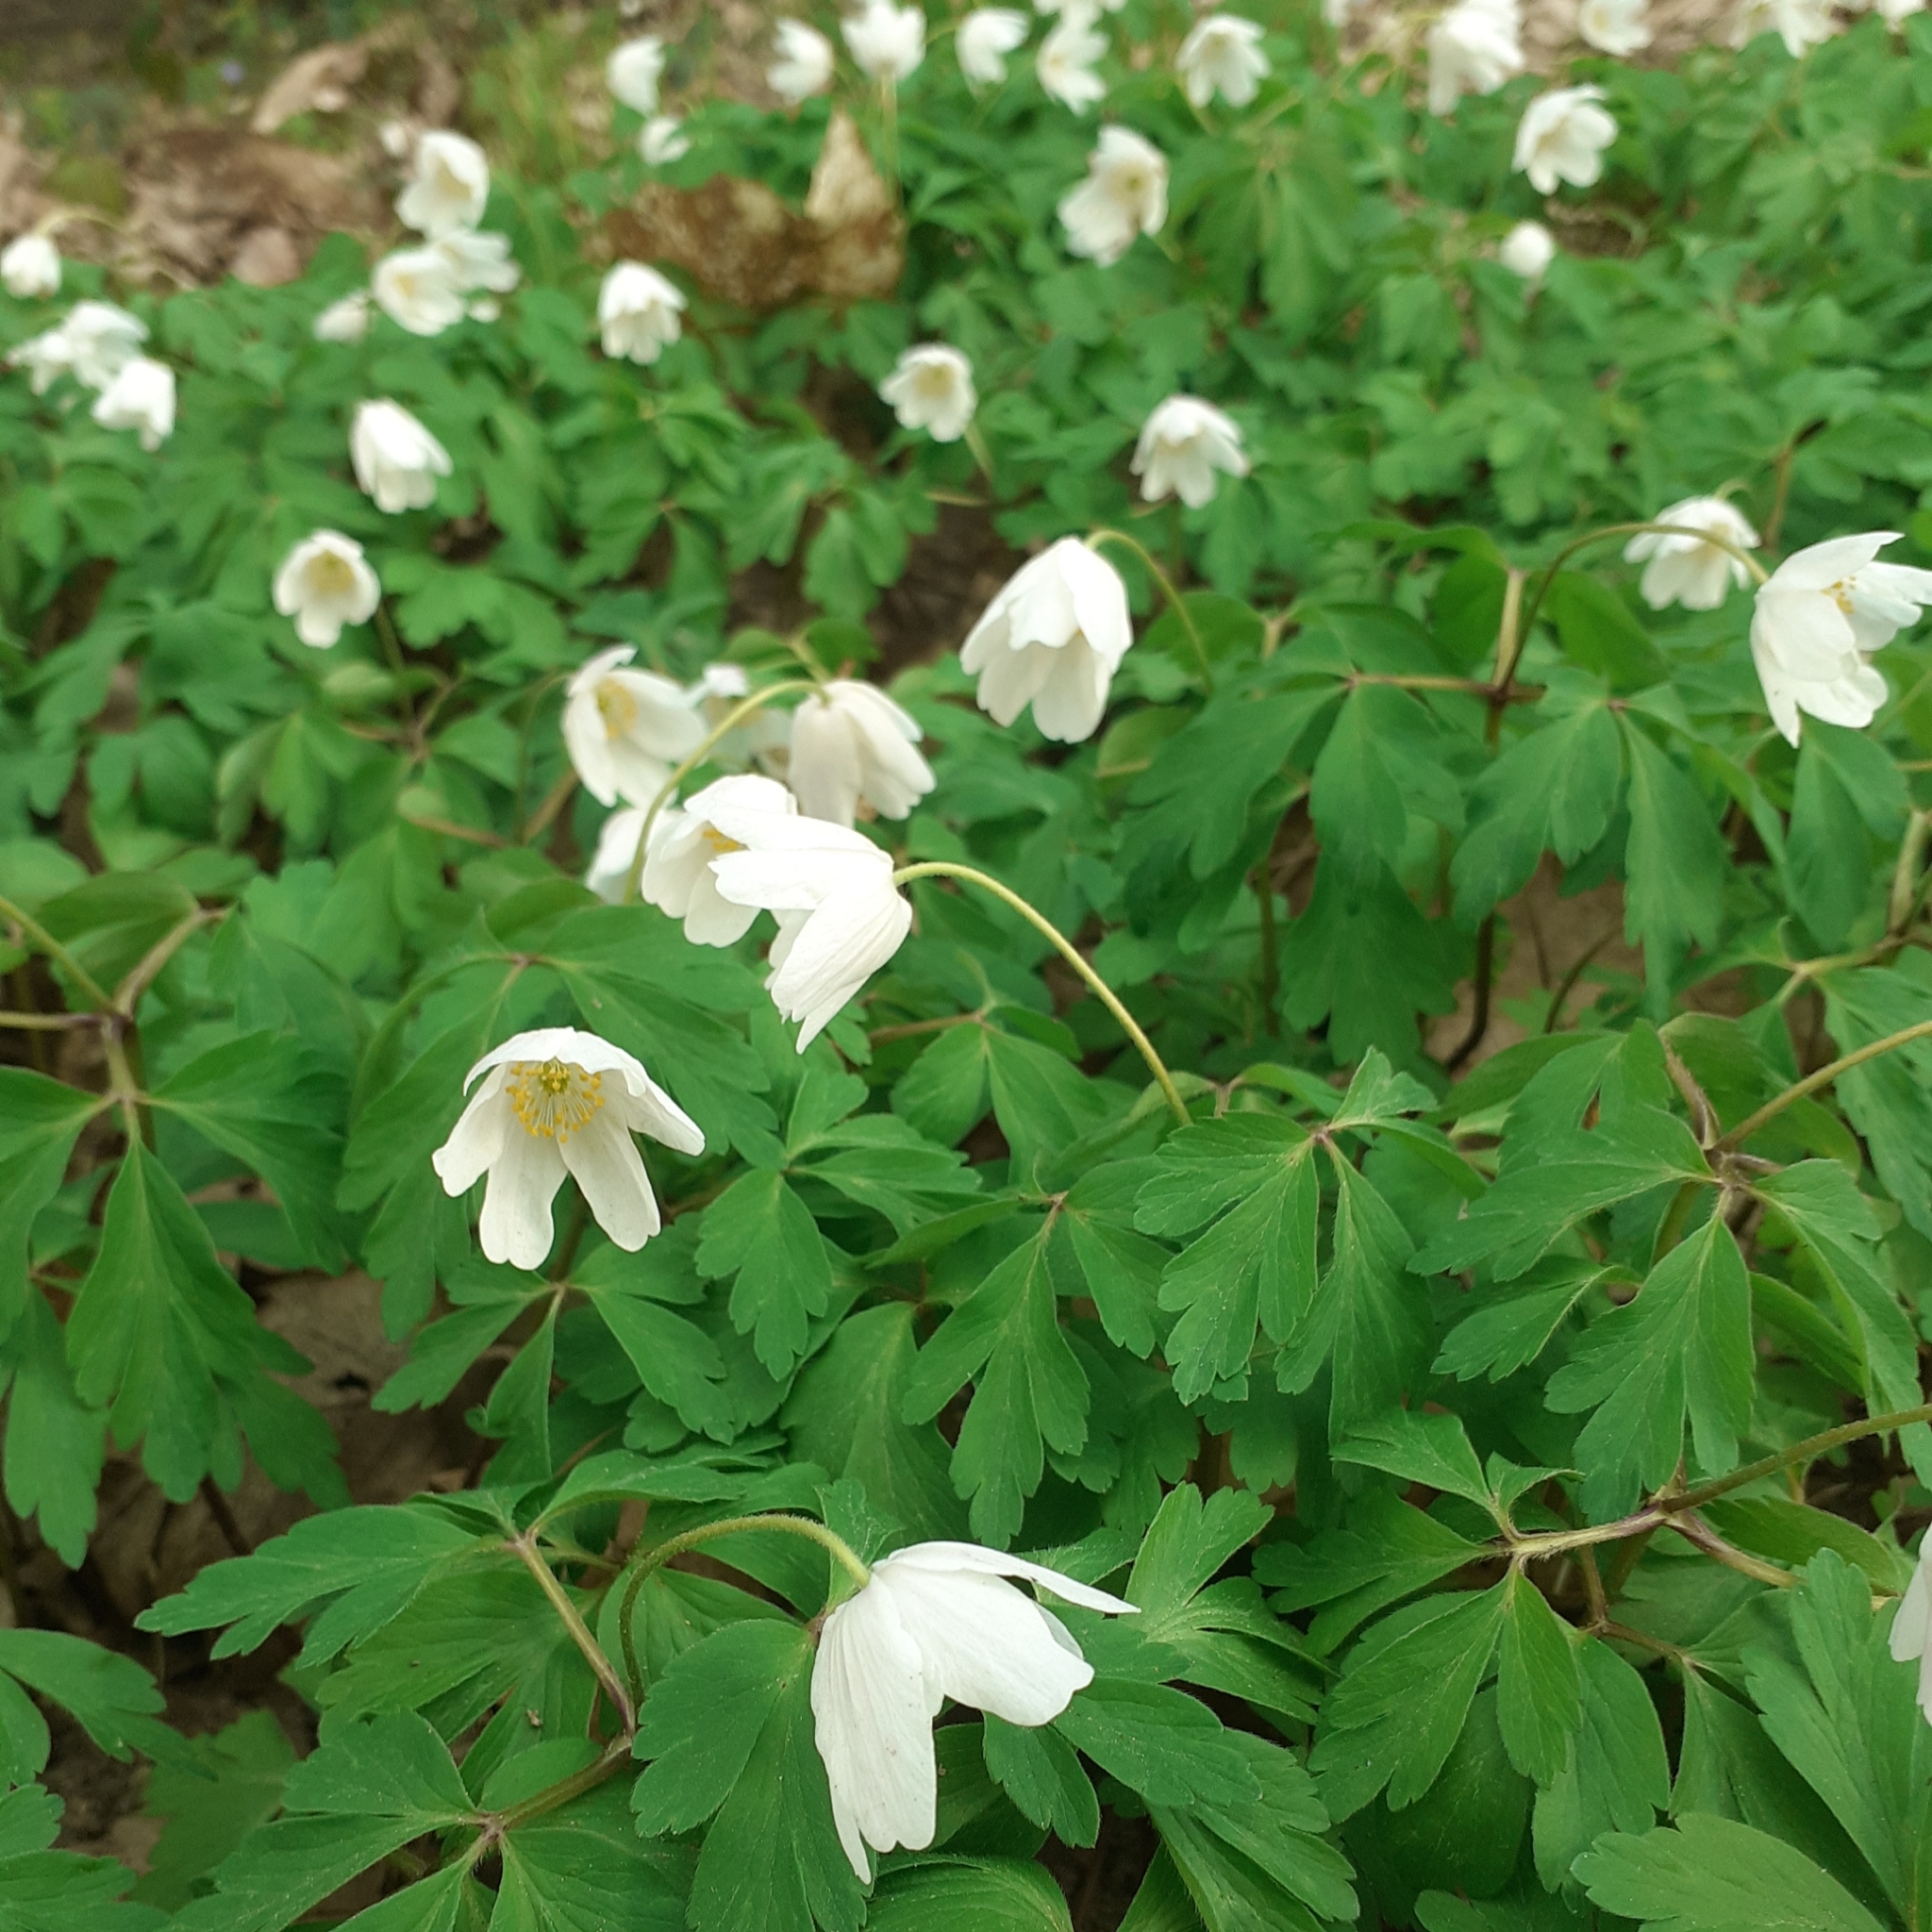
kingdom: Plantae
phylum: Tracheophyta
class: Magnoliopsida
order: Ranunculales
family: Ranunculaceae
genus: Anemone
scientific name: Anemone nemorosa
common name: Wood anemone
